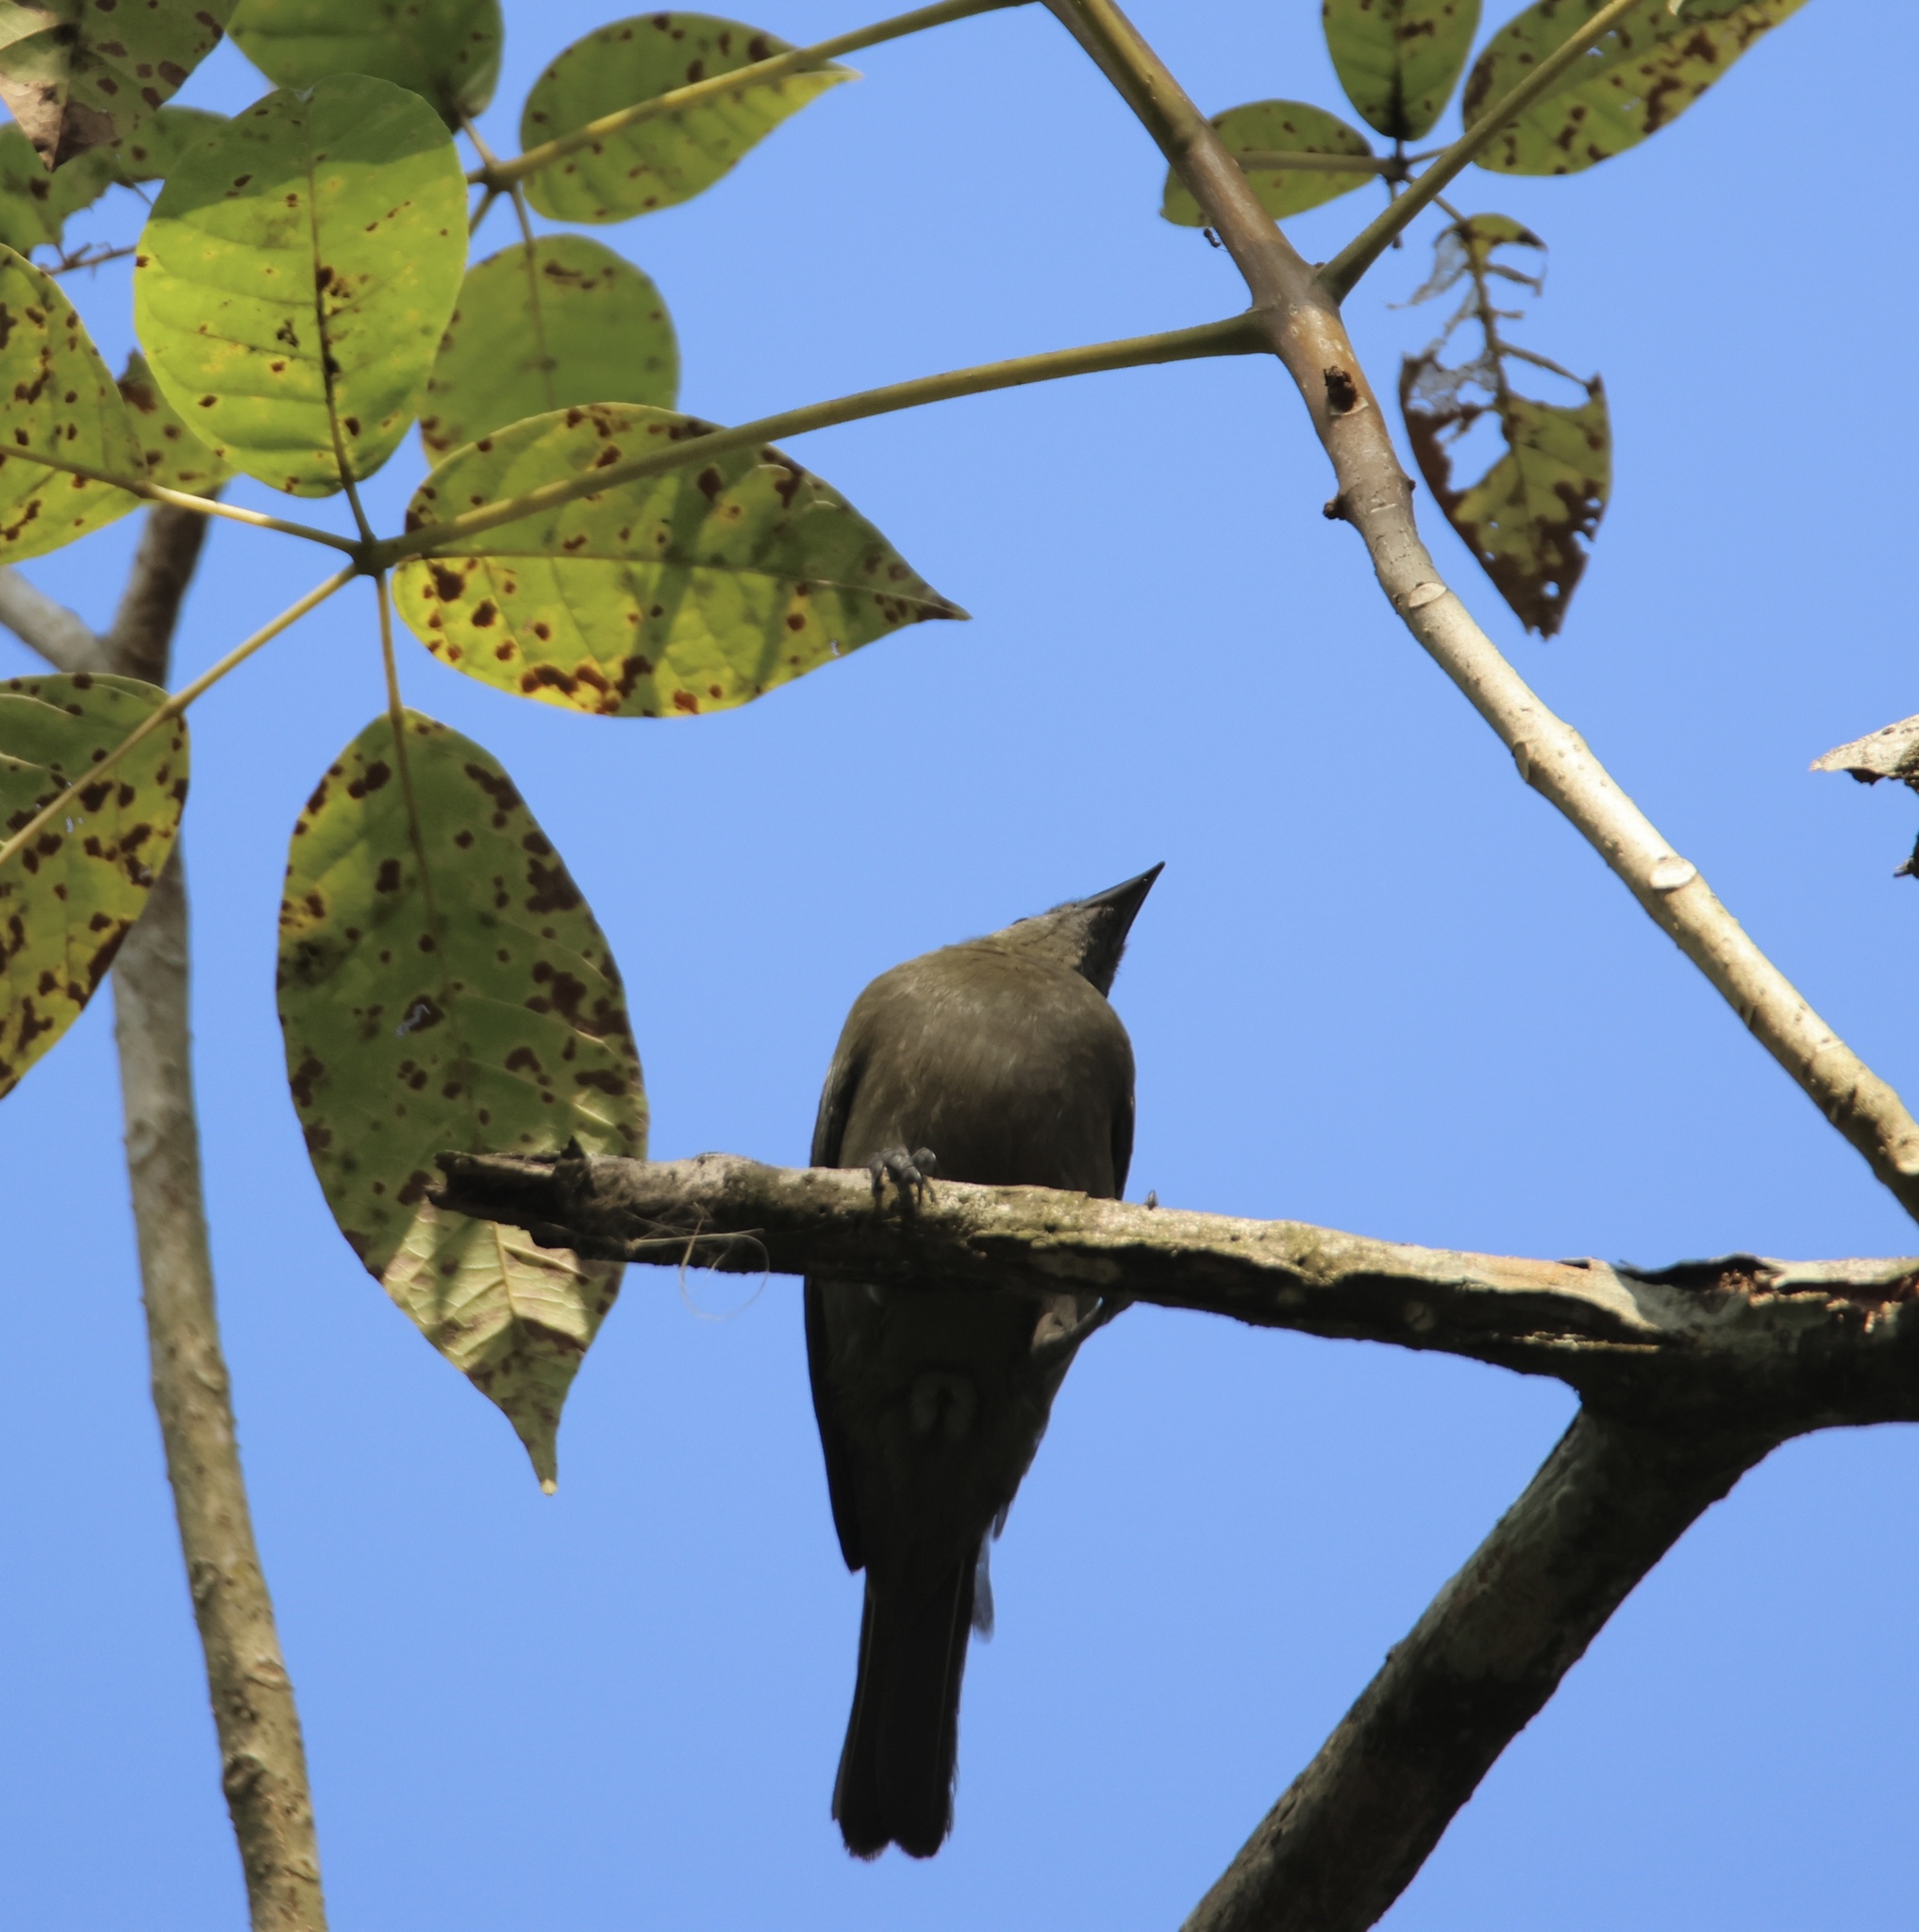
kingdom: Animalia
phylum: Chordata
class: Aves
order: Passeriformes
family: Thraupidae
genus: Thraupis
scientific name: Thraupis palmarum
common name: Palm tanager
